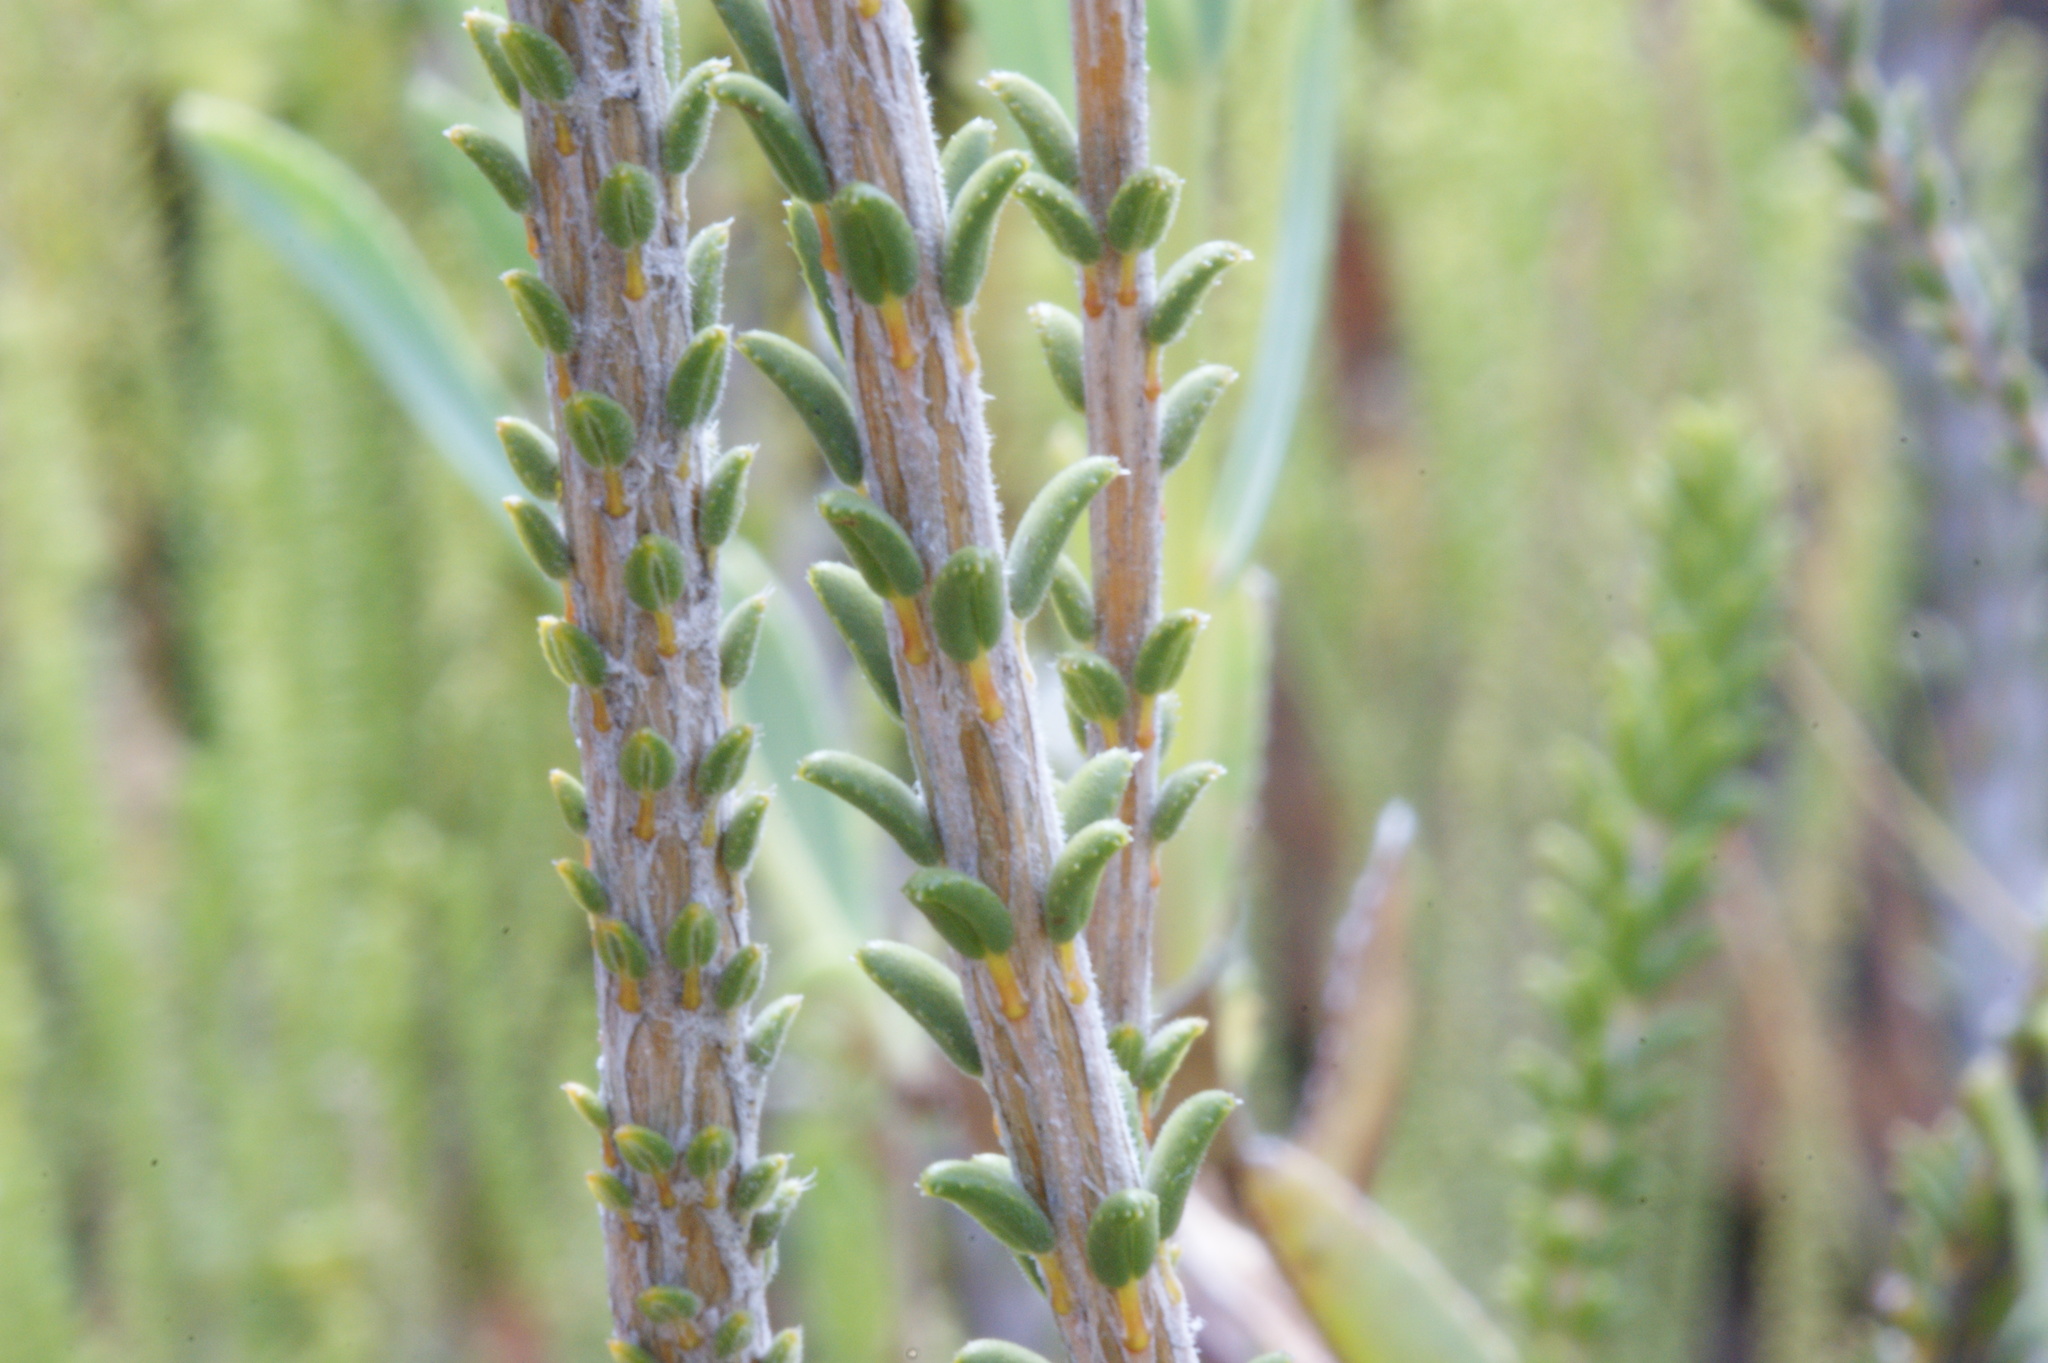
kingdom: Plantae
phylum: Tracheophyta
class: Magnoliopsida
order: Ericales
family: Ericaceae
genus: Erica
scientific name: Erica cerinthoides
